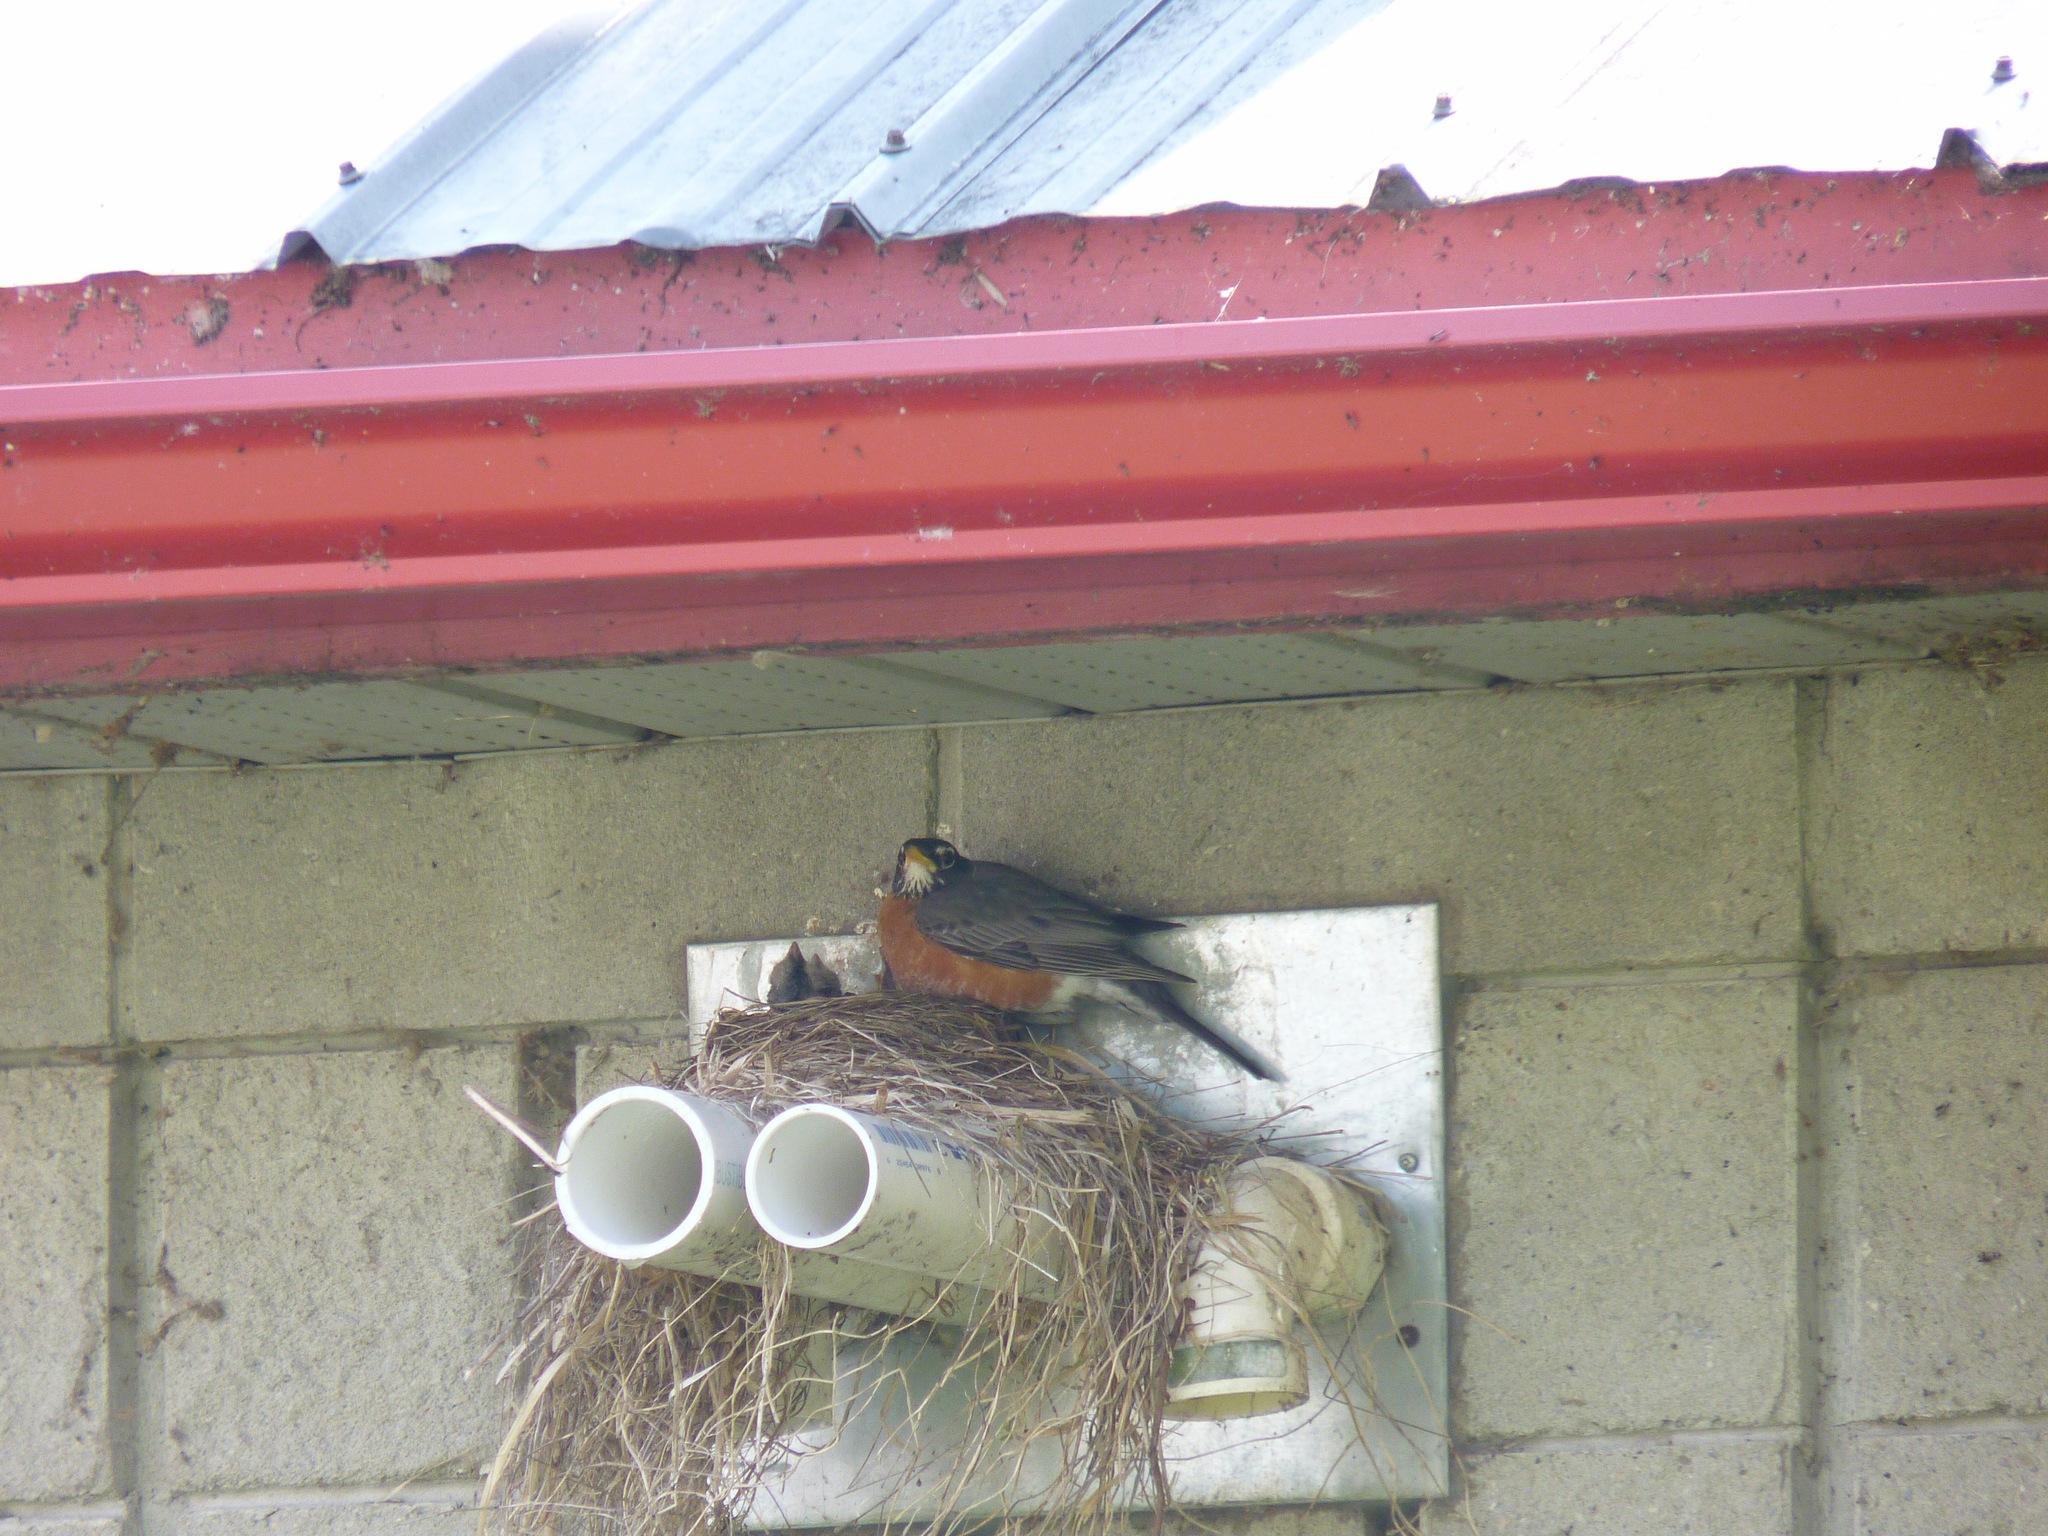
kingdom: Animalia
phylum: Chordata
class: Aves
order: Passeriformes
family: Turdidae
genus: Turdus
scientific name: Turdus migratorius
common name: American robin
